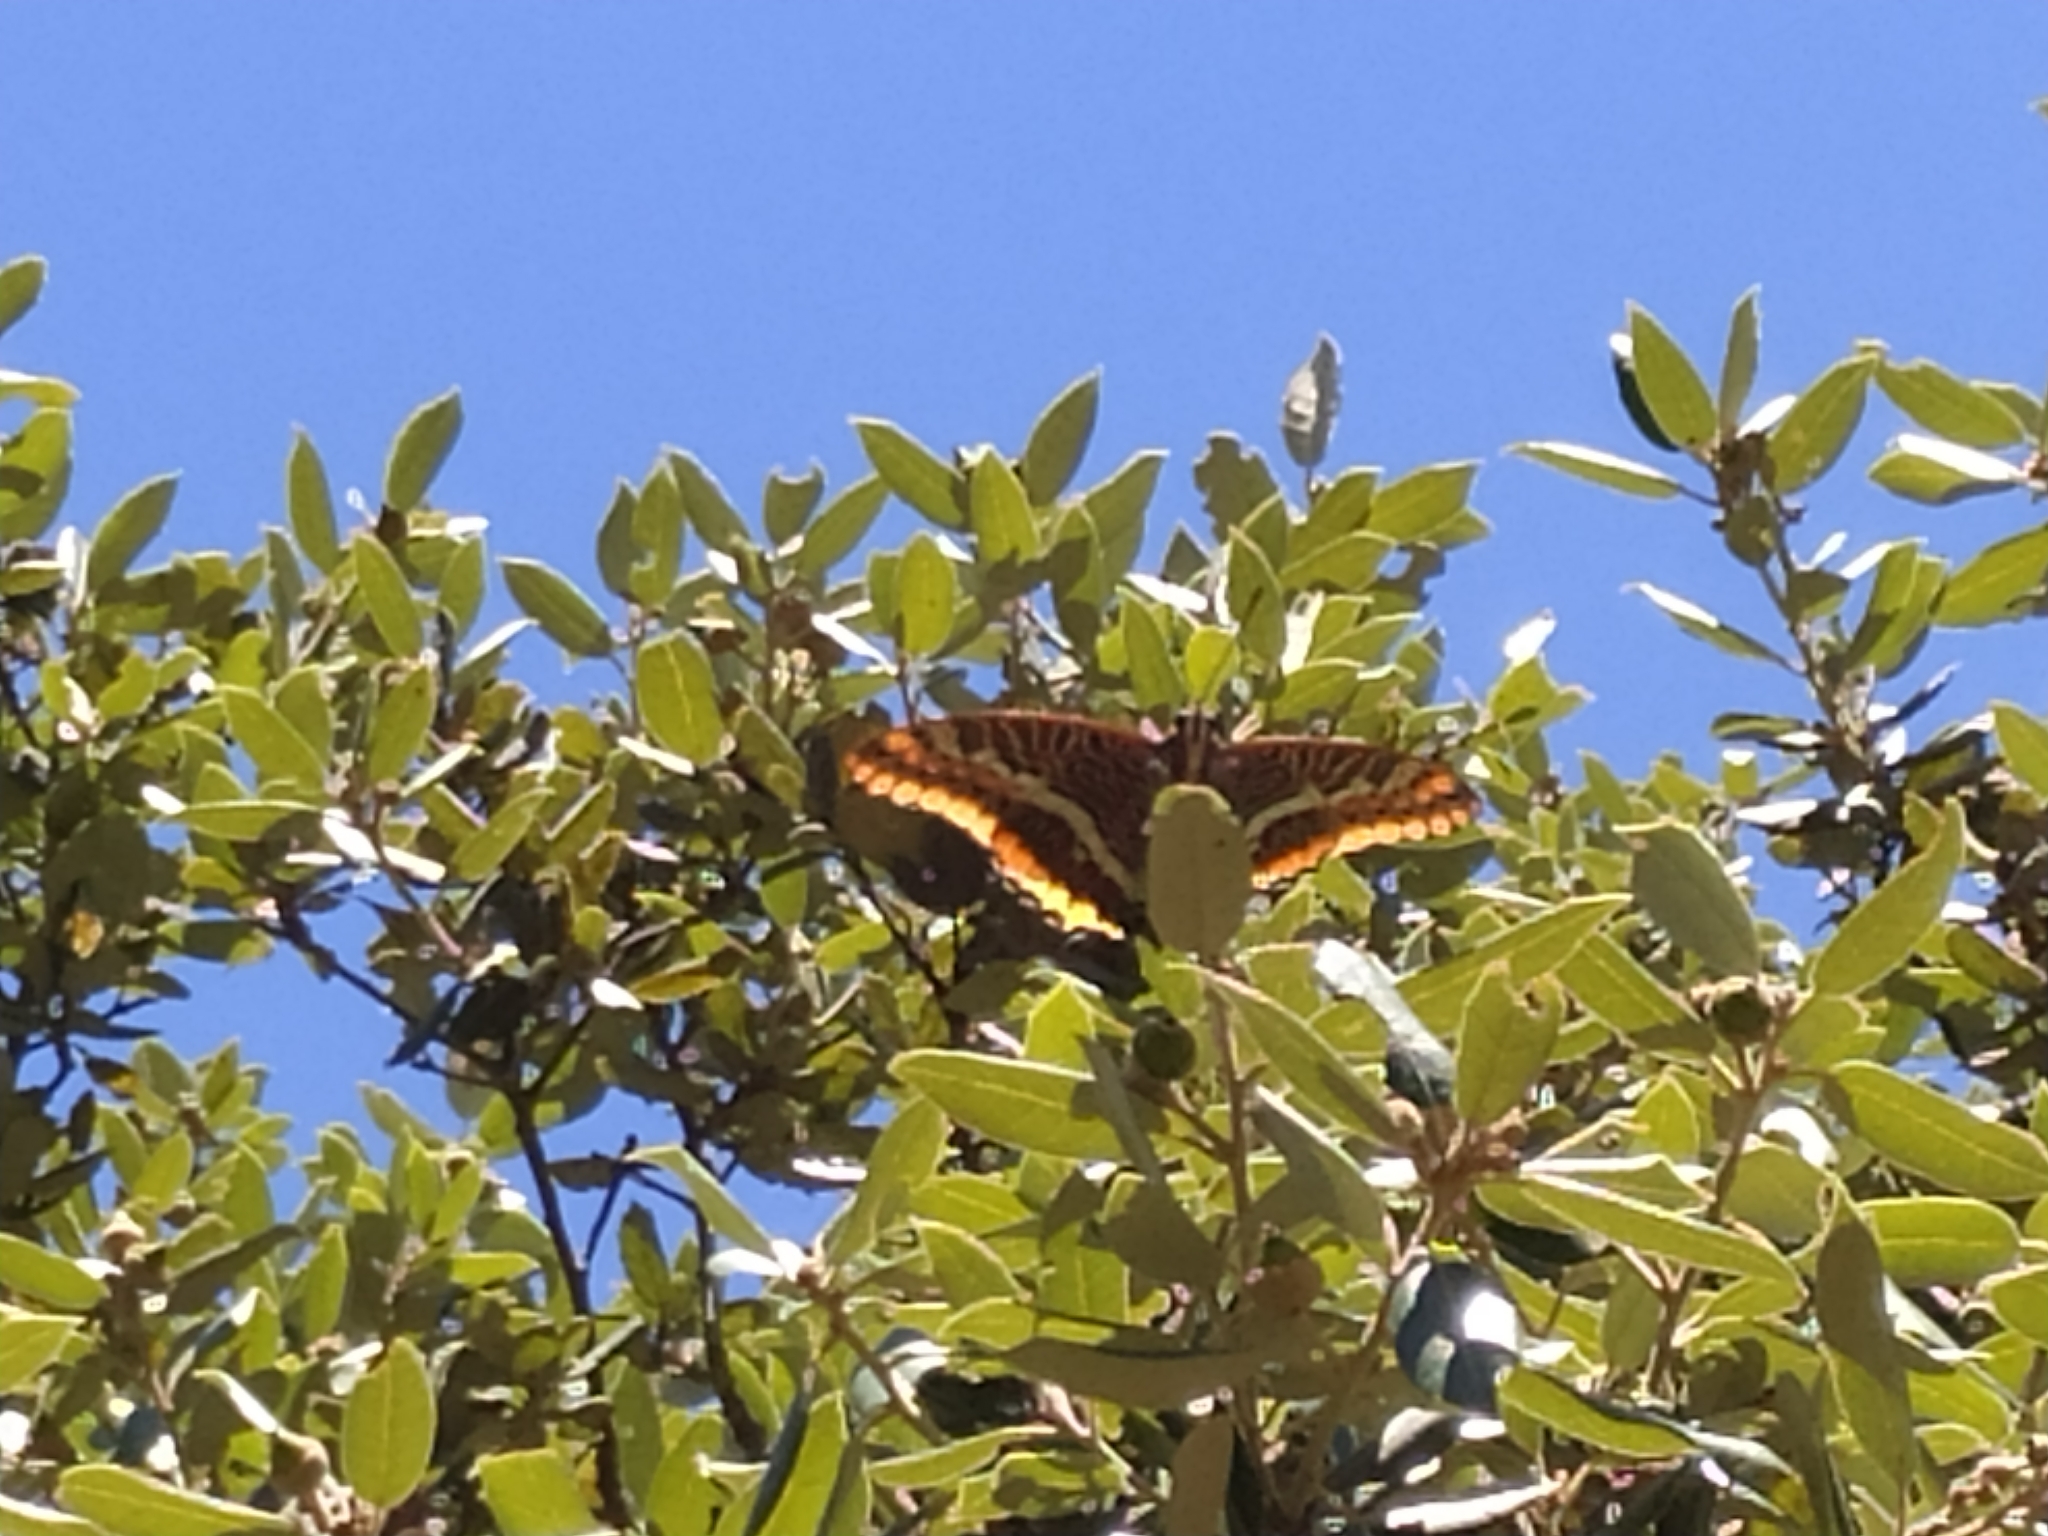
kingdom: Animalia
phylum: Arthropoda
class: Insecta
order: Lepidoptera
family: Nymphalidae
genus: Charaxes
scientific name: Charaxes jasius
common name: Two tailed pasha
